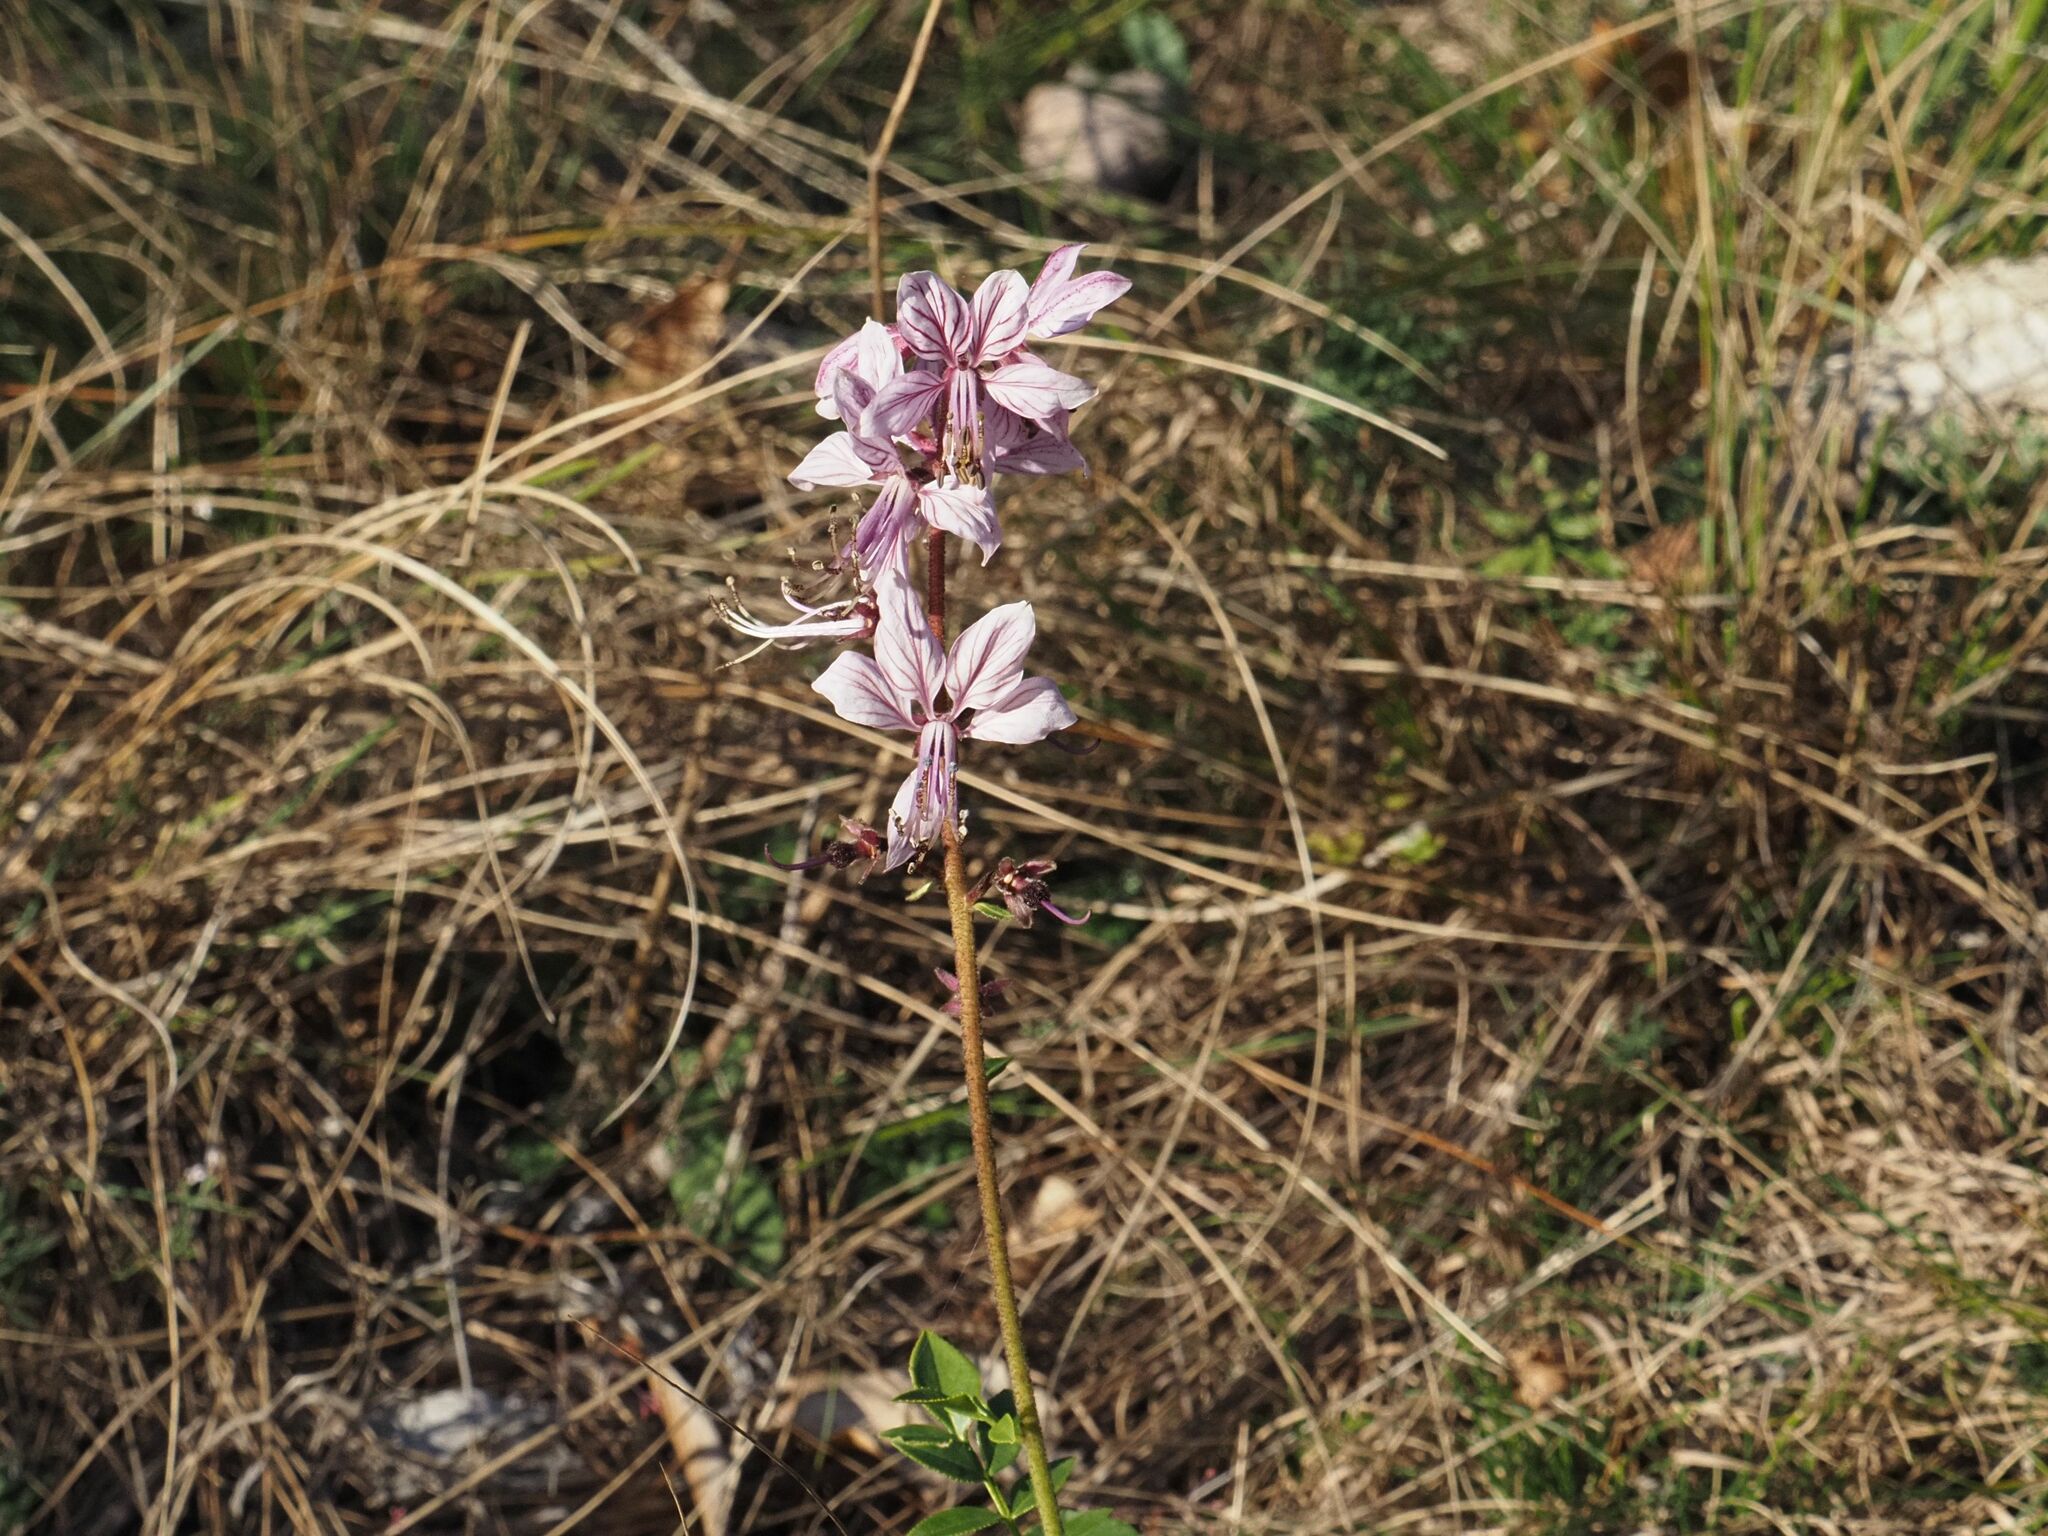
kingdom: Plantae
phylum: Tracheophyta
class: Magnoliopsida
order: Sapindales
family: Rutaceae
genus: Dictamnus
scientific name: Dictamnus albus
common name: Gasplant
